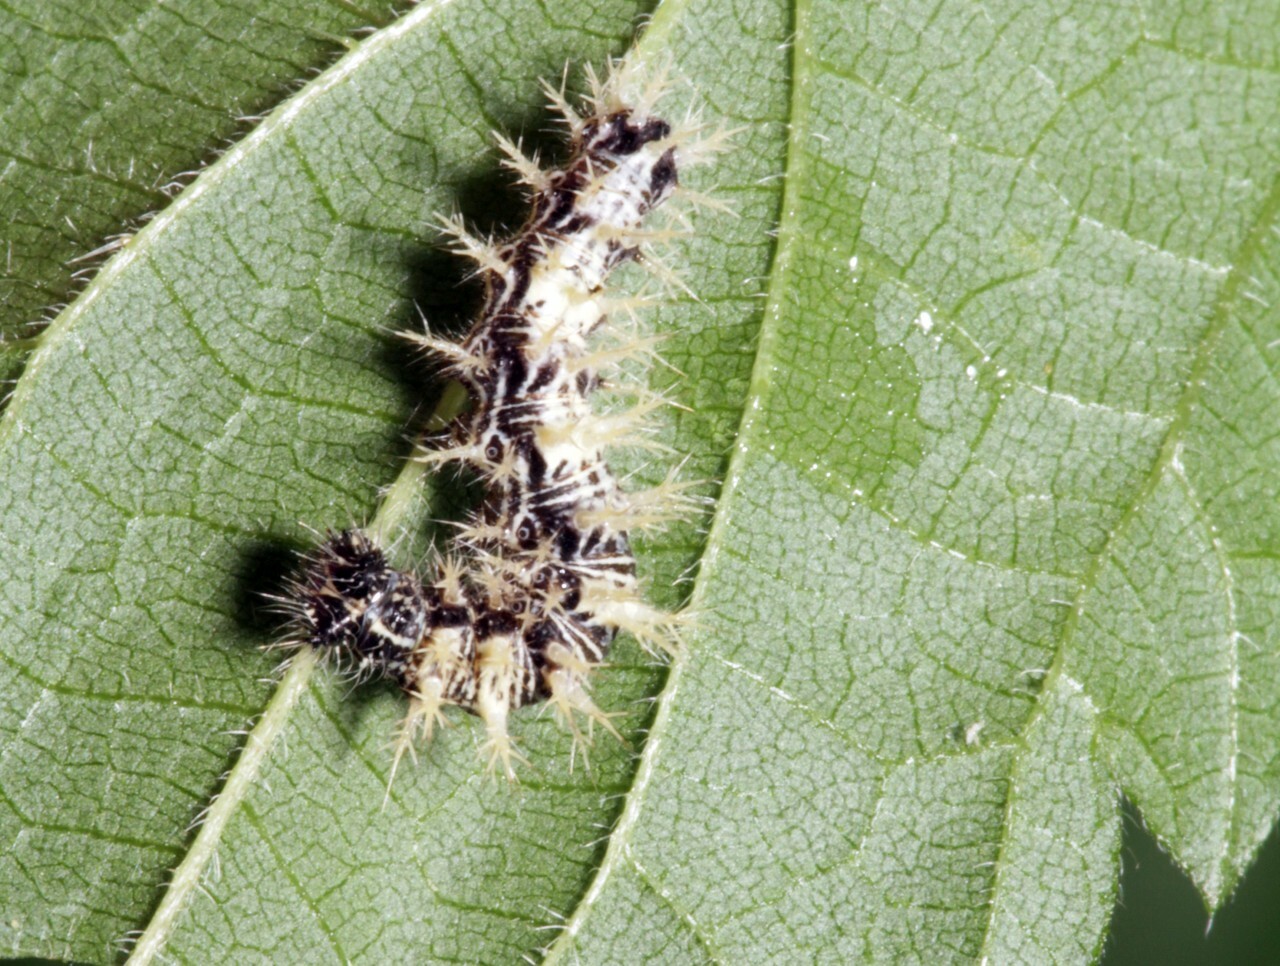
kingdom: Animalia
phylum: Arthropoda
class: Insecta
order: Lepidoptera
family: Nymphalidae
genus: Polygonia
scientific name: Polygonia c-album
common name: Comma
